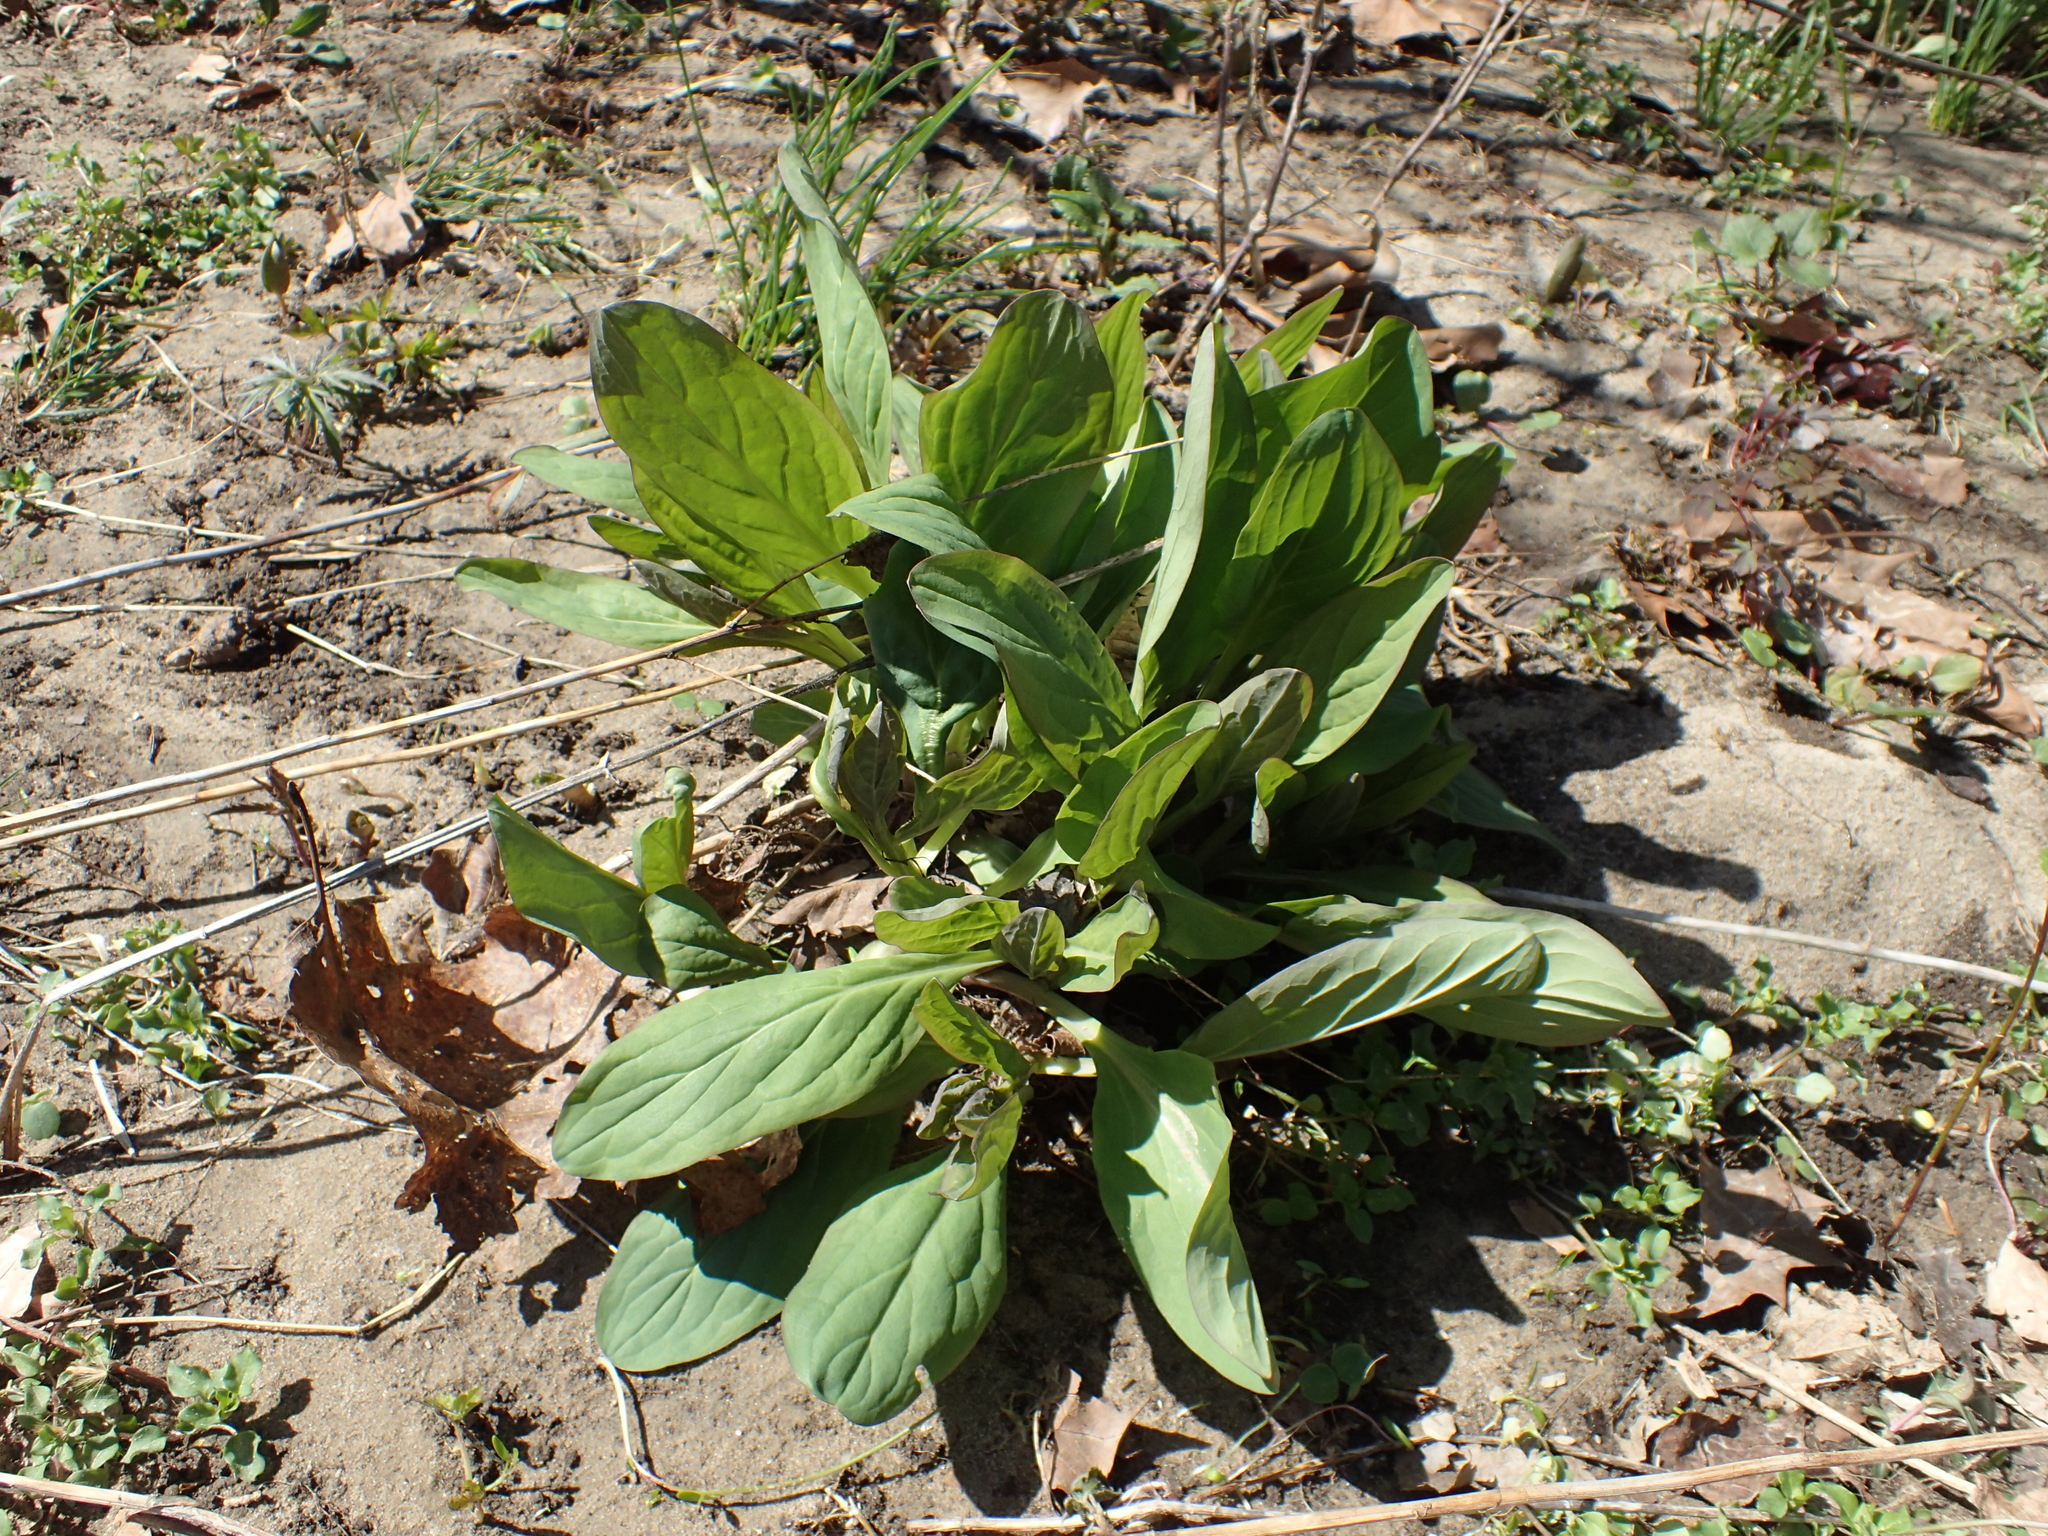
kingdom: Plantae
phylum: Tracheophyta
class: Magnoliopsida
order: Boraginales
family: Boraginaceae
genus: Mertensia
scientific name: Mertensia virginica
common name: Virginia bluebells
